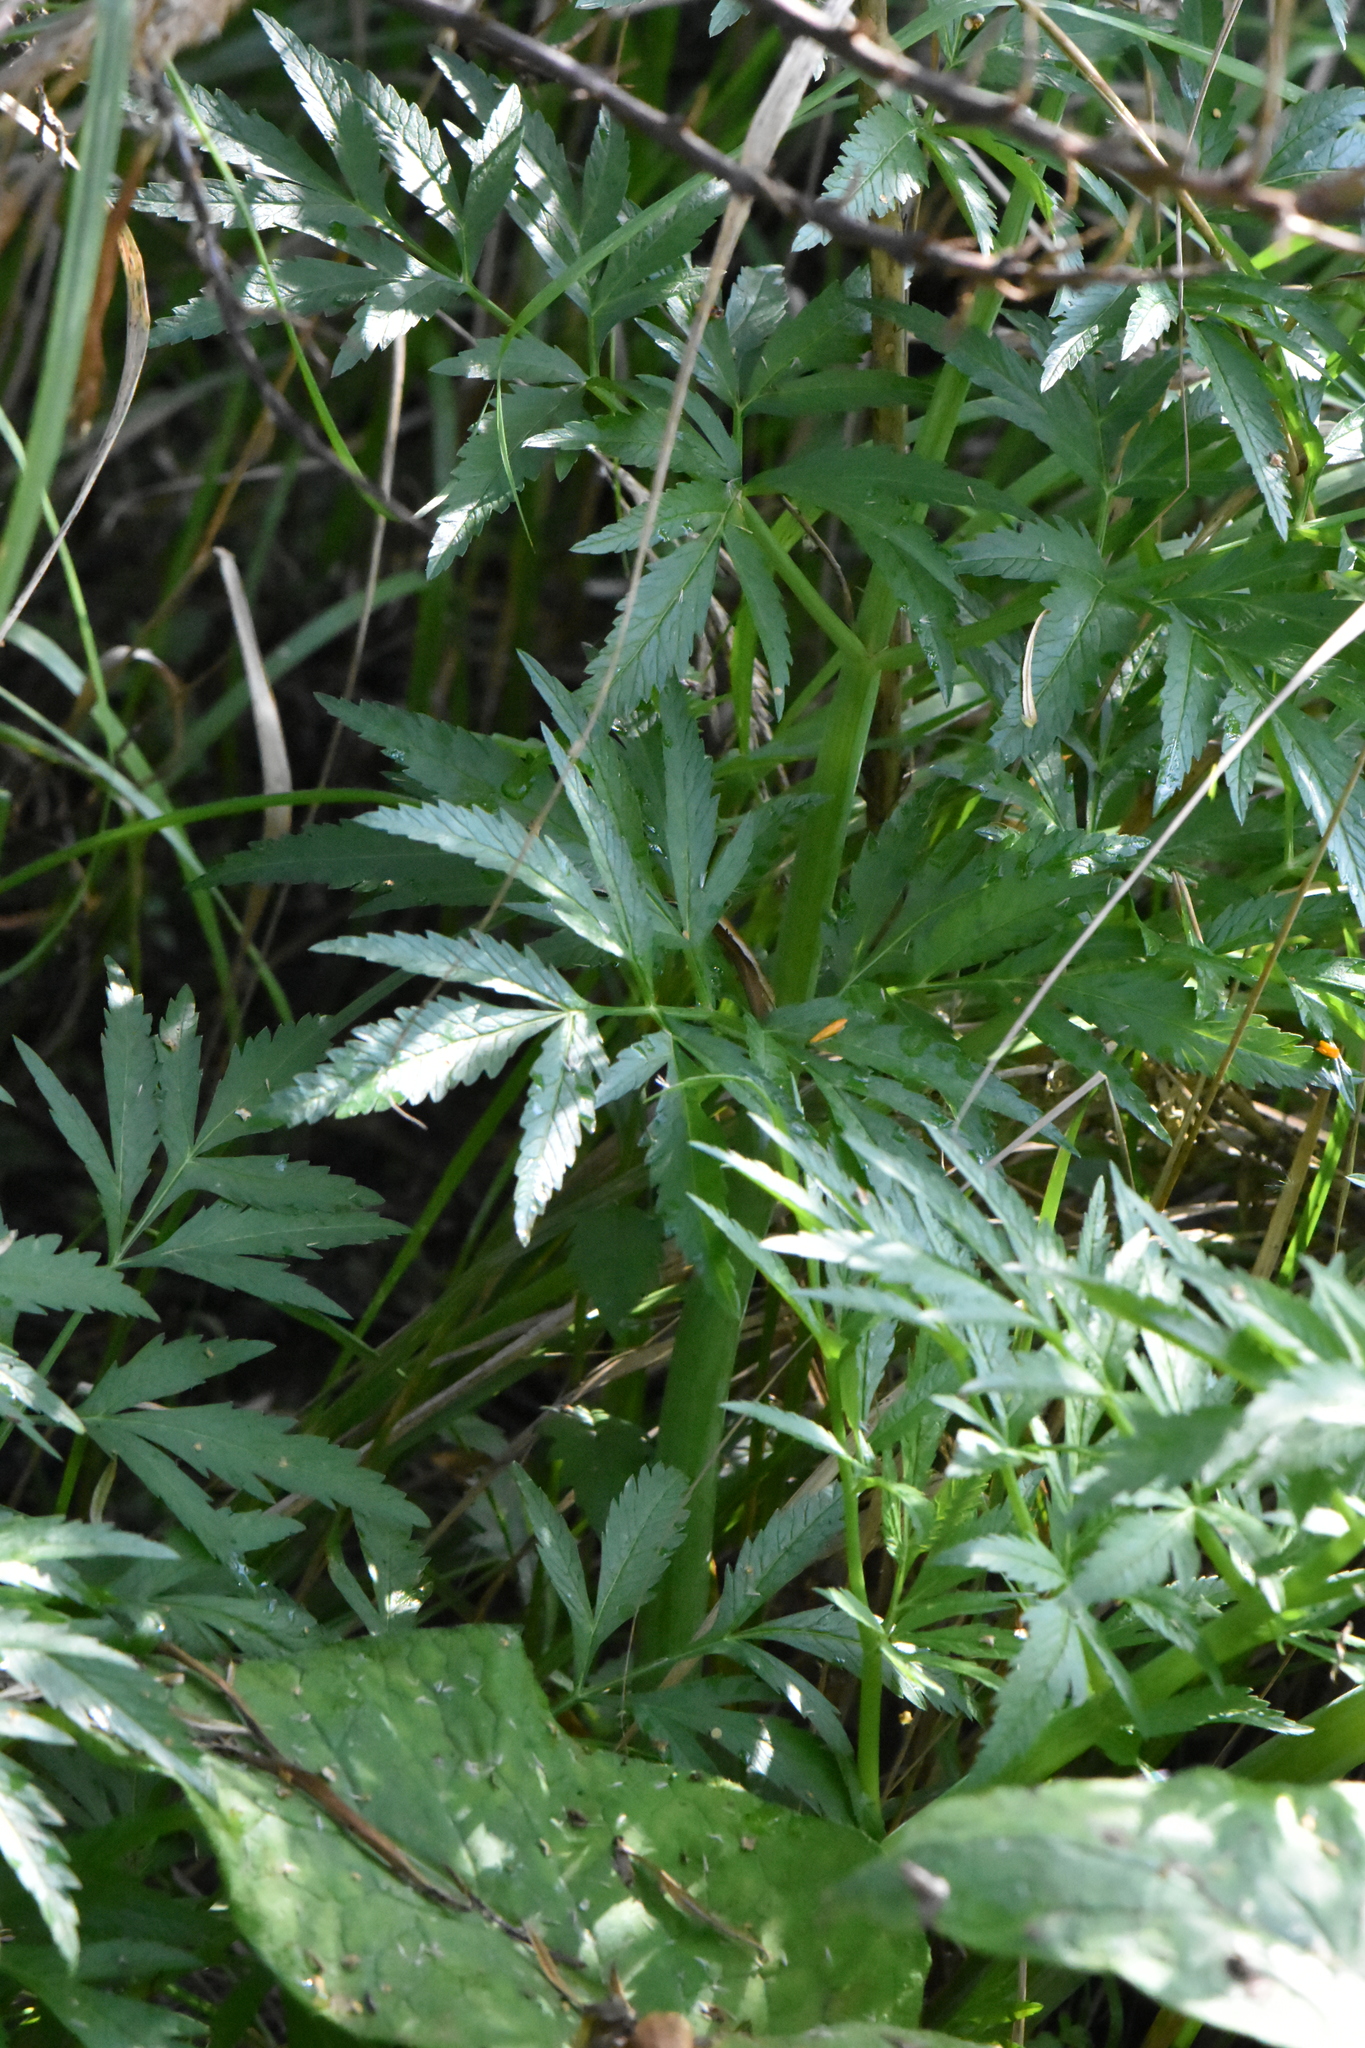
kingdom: Plantae
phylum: Tracheophyta
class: Magnoliopsida
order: Apiales
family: Apiaceae
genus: Cicuta
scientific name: Cicuta virosa
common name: Cowbane
